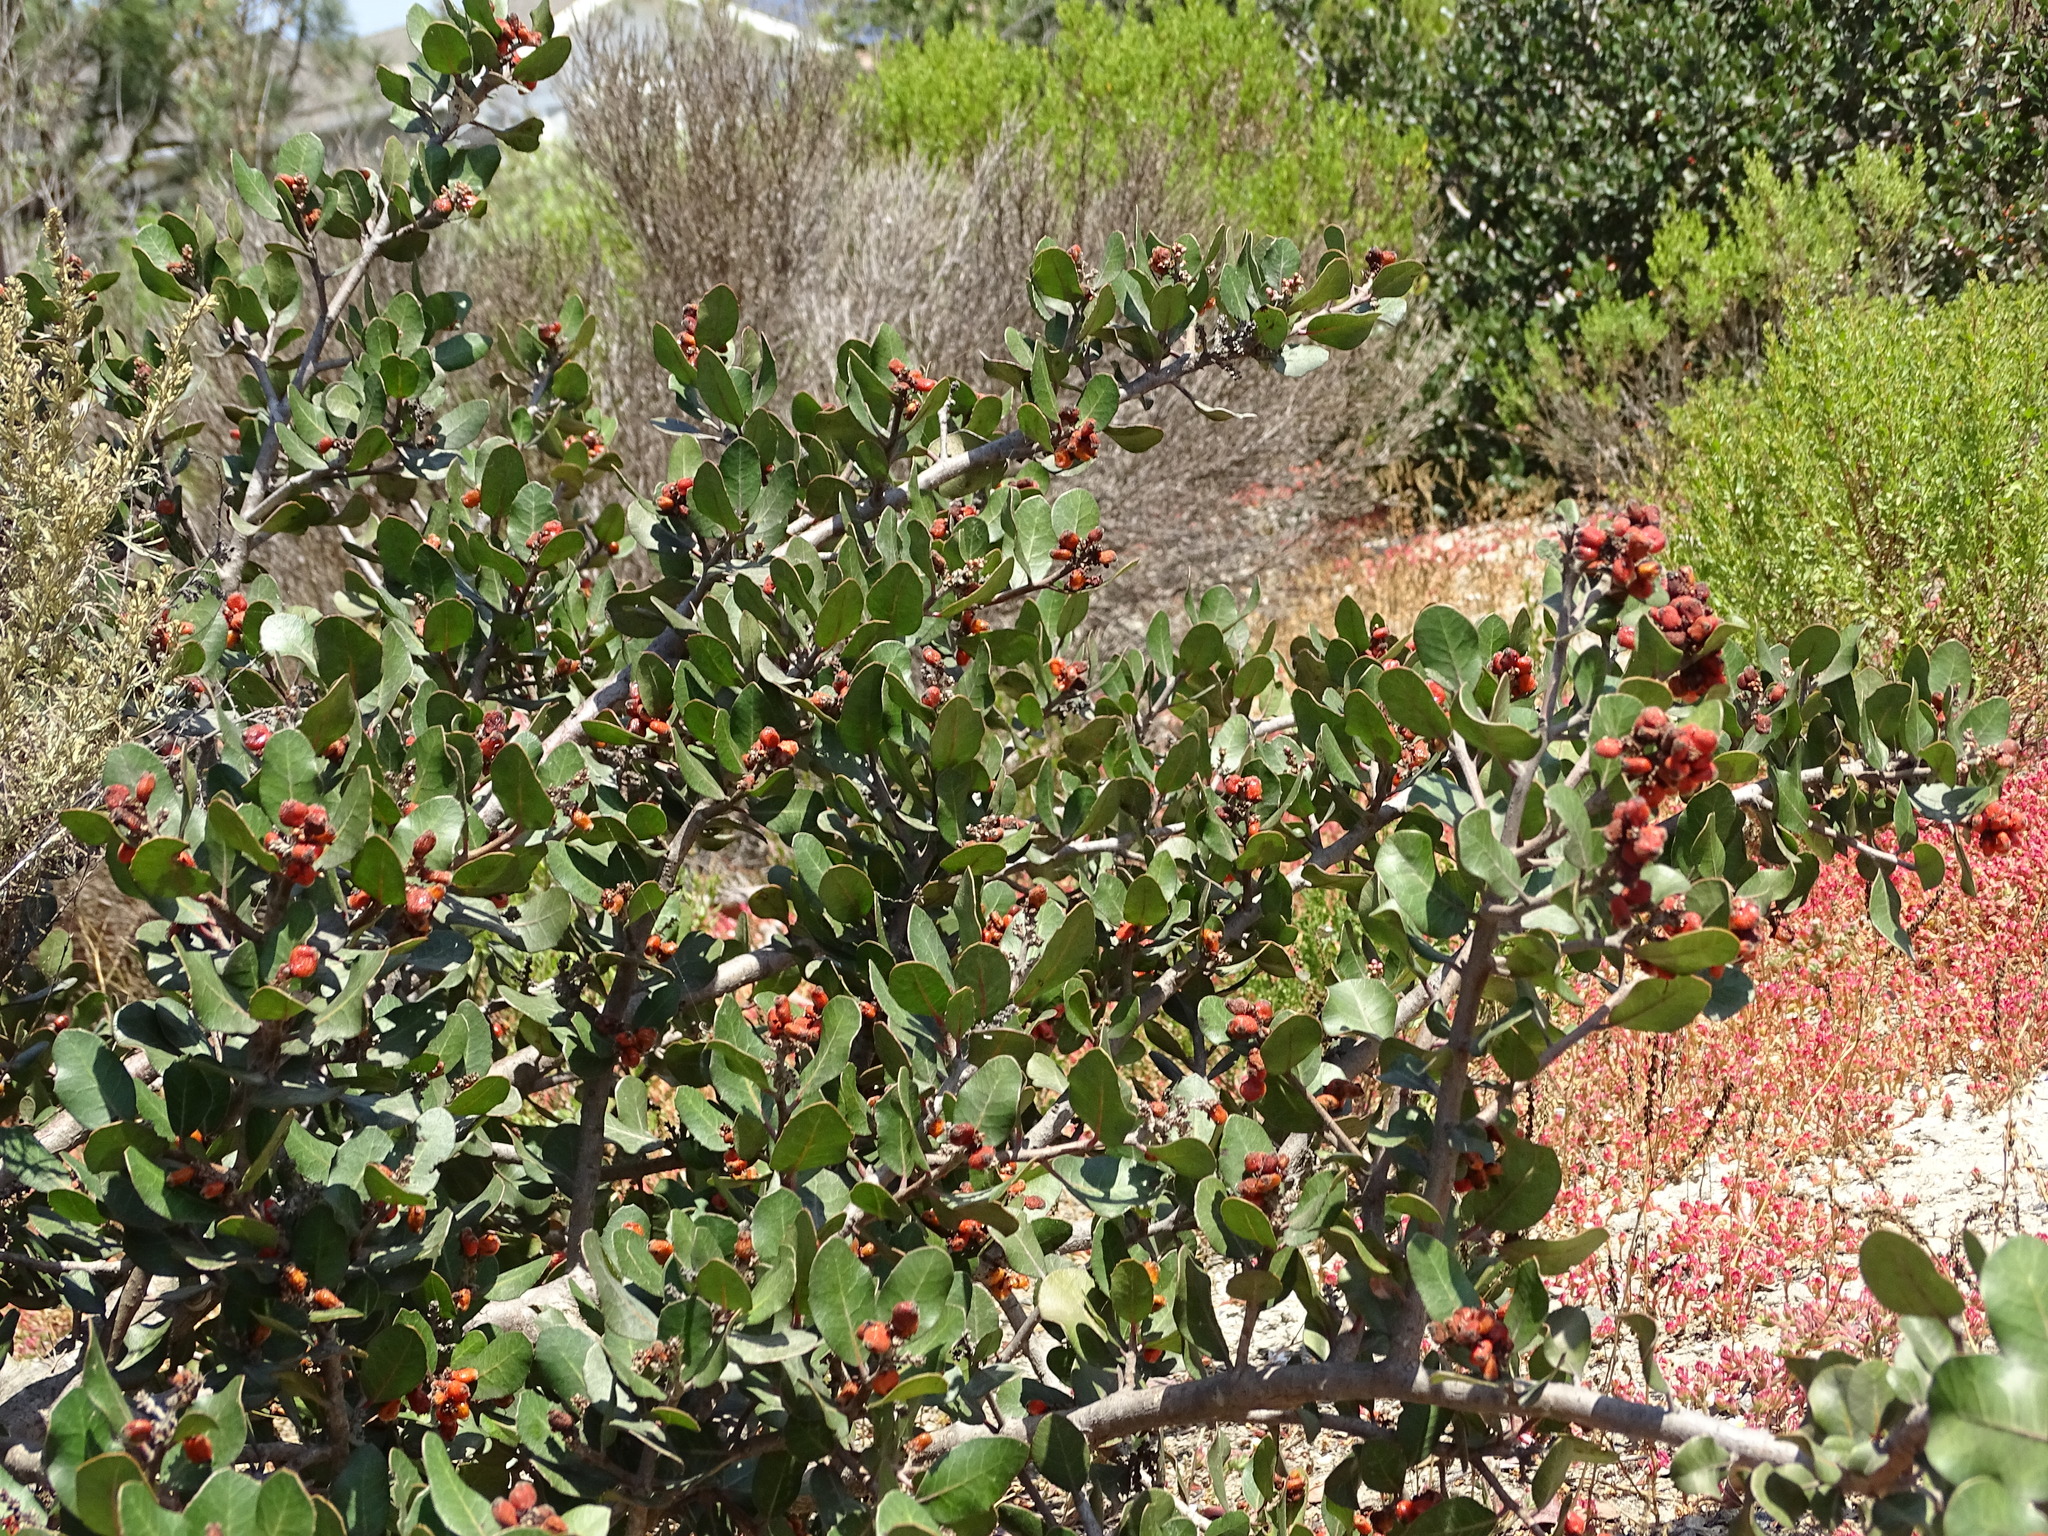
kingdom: Plantae
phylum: Tracheophyta
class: Magnoliopsida
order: Sapindales
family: Anacardiaceae
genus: Rhus
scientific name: Rhus integrifolia
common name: Lemonade sumac
